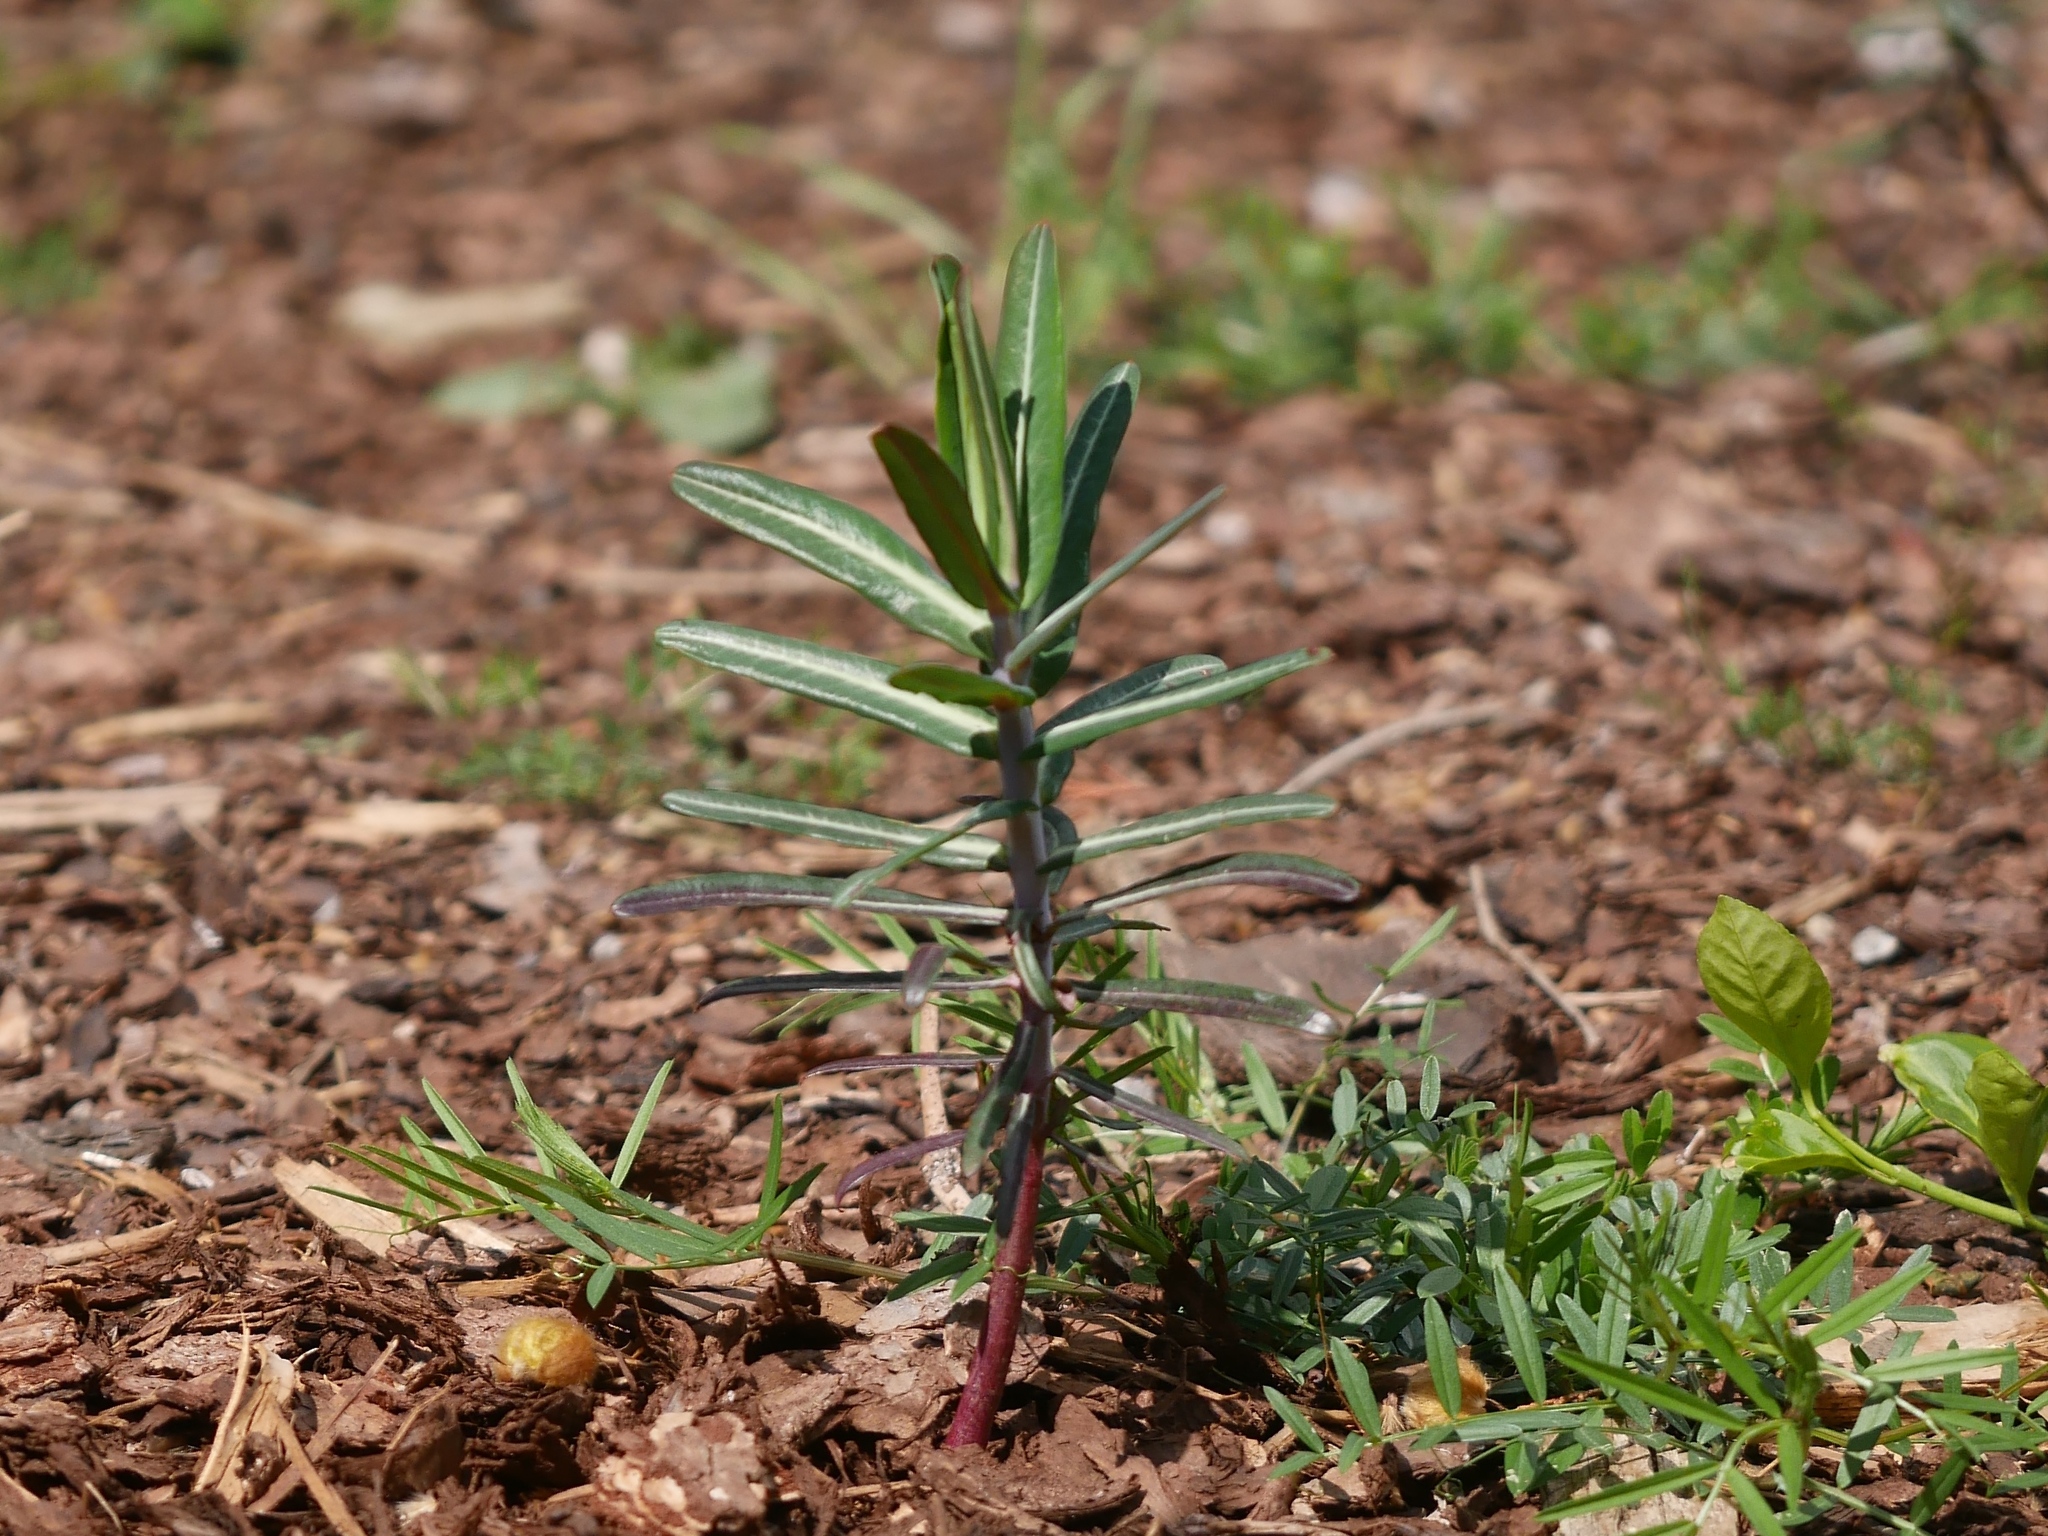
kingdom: Plantae
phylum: Tracheophyta
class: Magnoliopsida
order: Malpighiales
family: Euphorbiaceae
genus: Euphorbia
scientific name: Euphorbia lathyris
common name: Caper spurge
